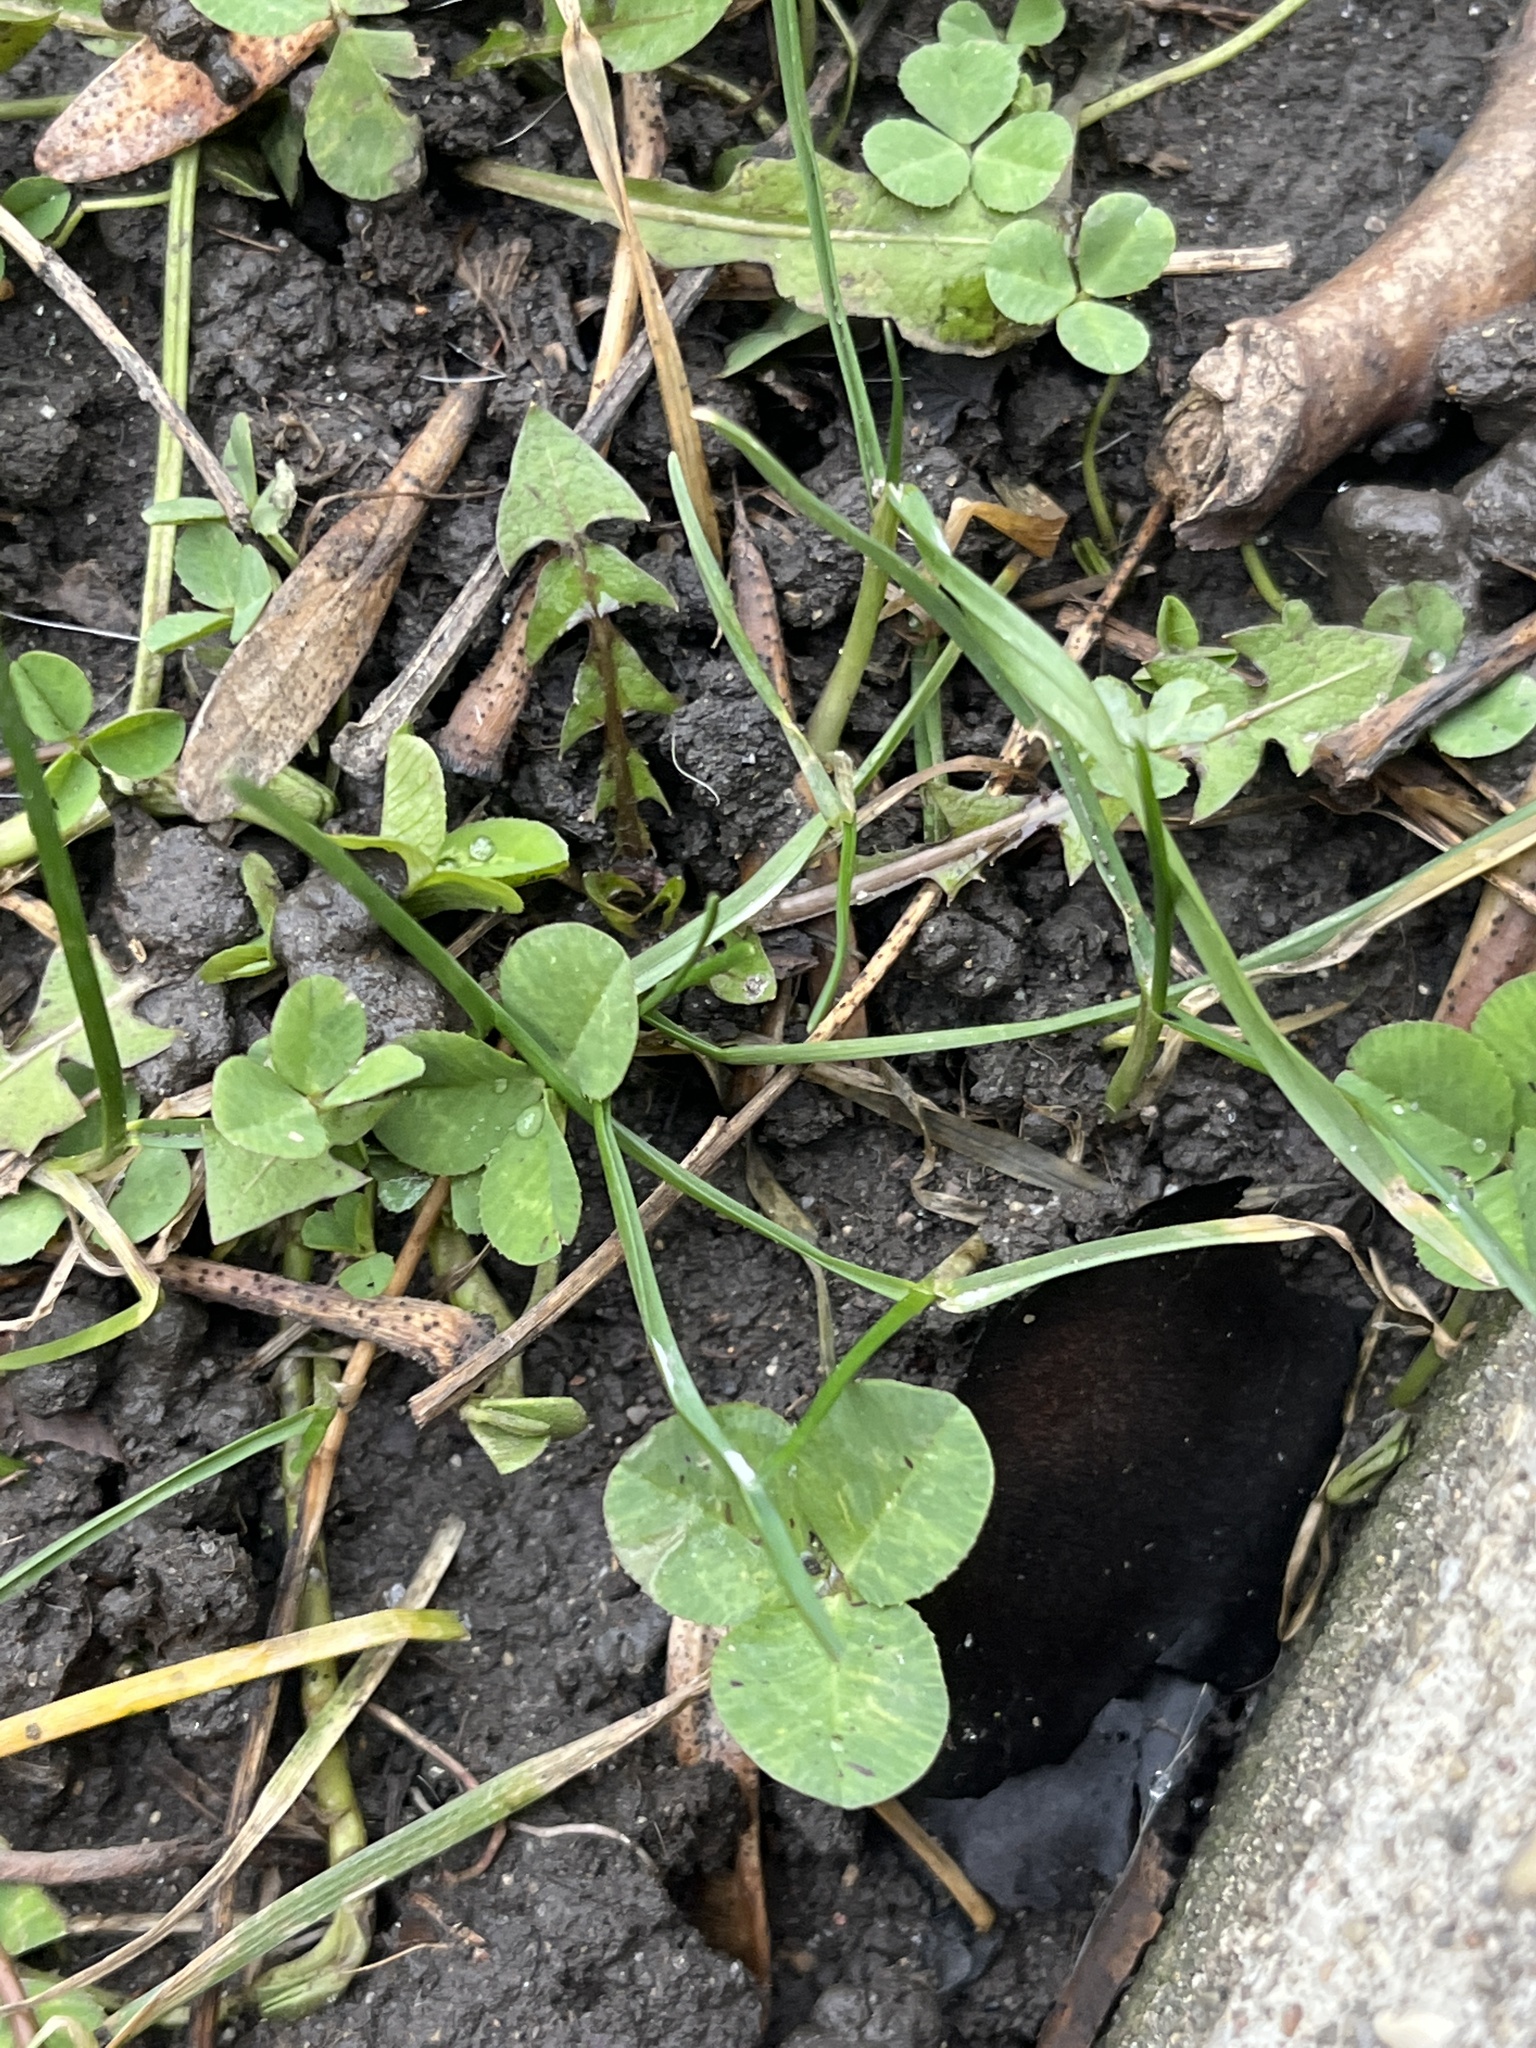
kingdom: Plantae
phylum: Tracheophyta
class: Magnoliopsida
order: Fabales
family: Fabaceae
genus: Trifolium
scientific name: Trifolium repens
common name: White clover
